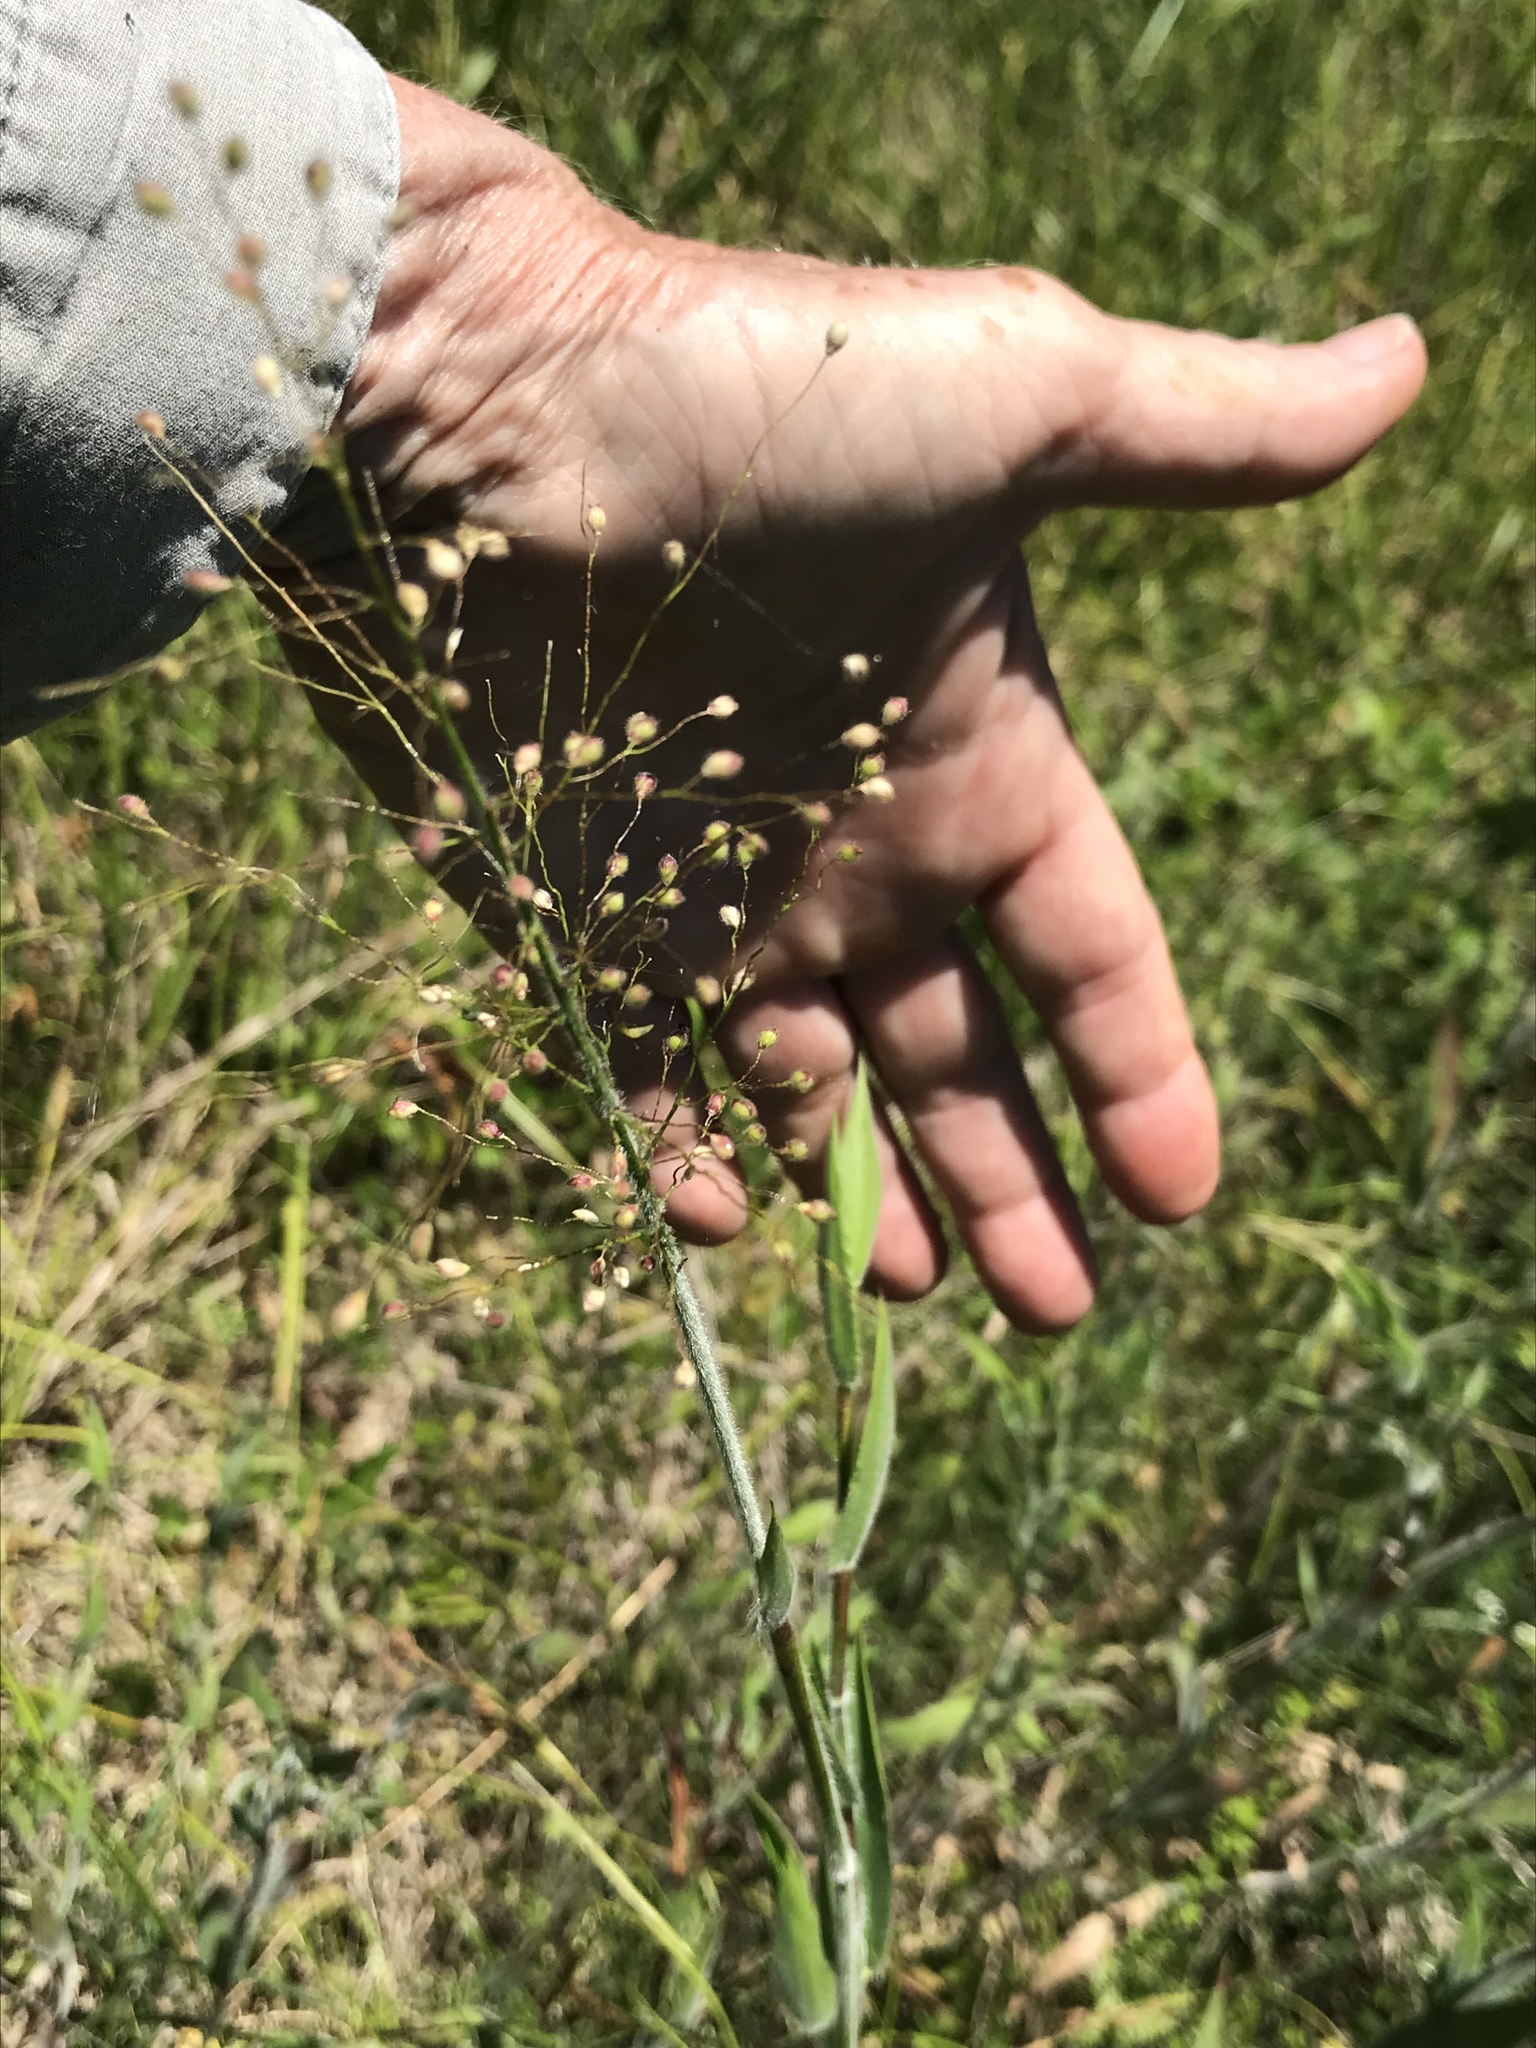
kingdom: Plantae
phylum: Tracheophyta
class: Liliopsida
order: Poales
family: Poaceae
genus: Dichanthelium
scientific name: Dichanthelium scoparium
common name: Velvety panic grass
